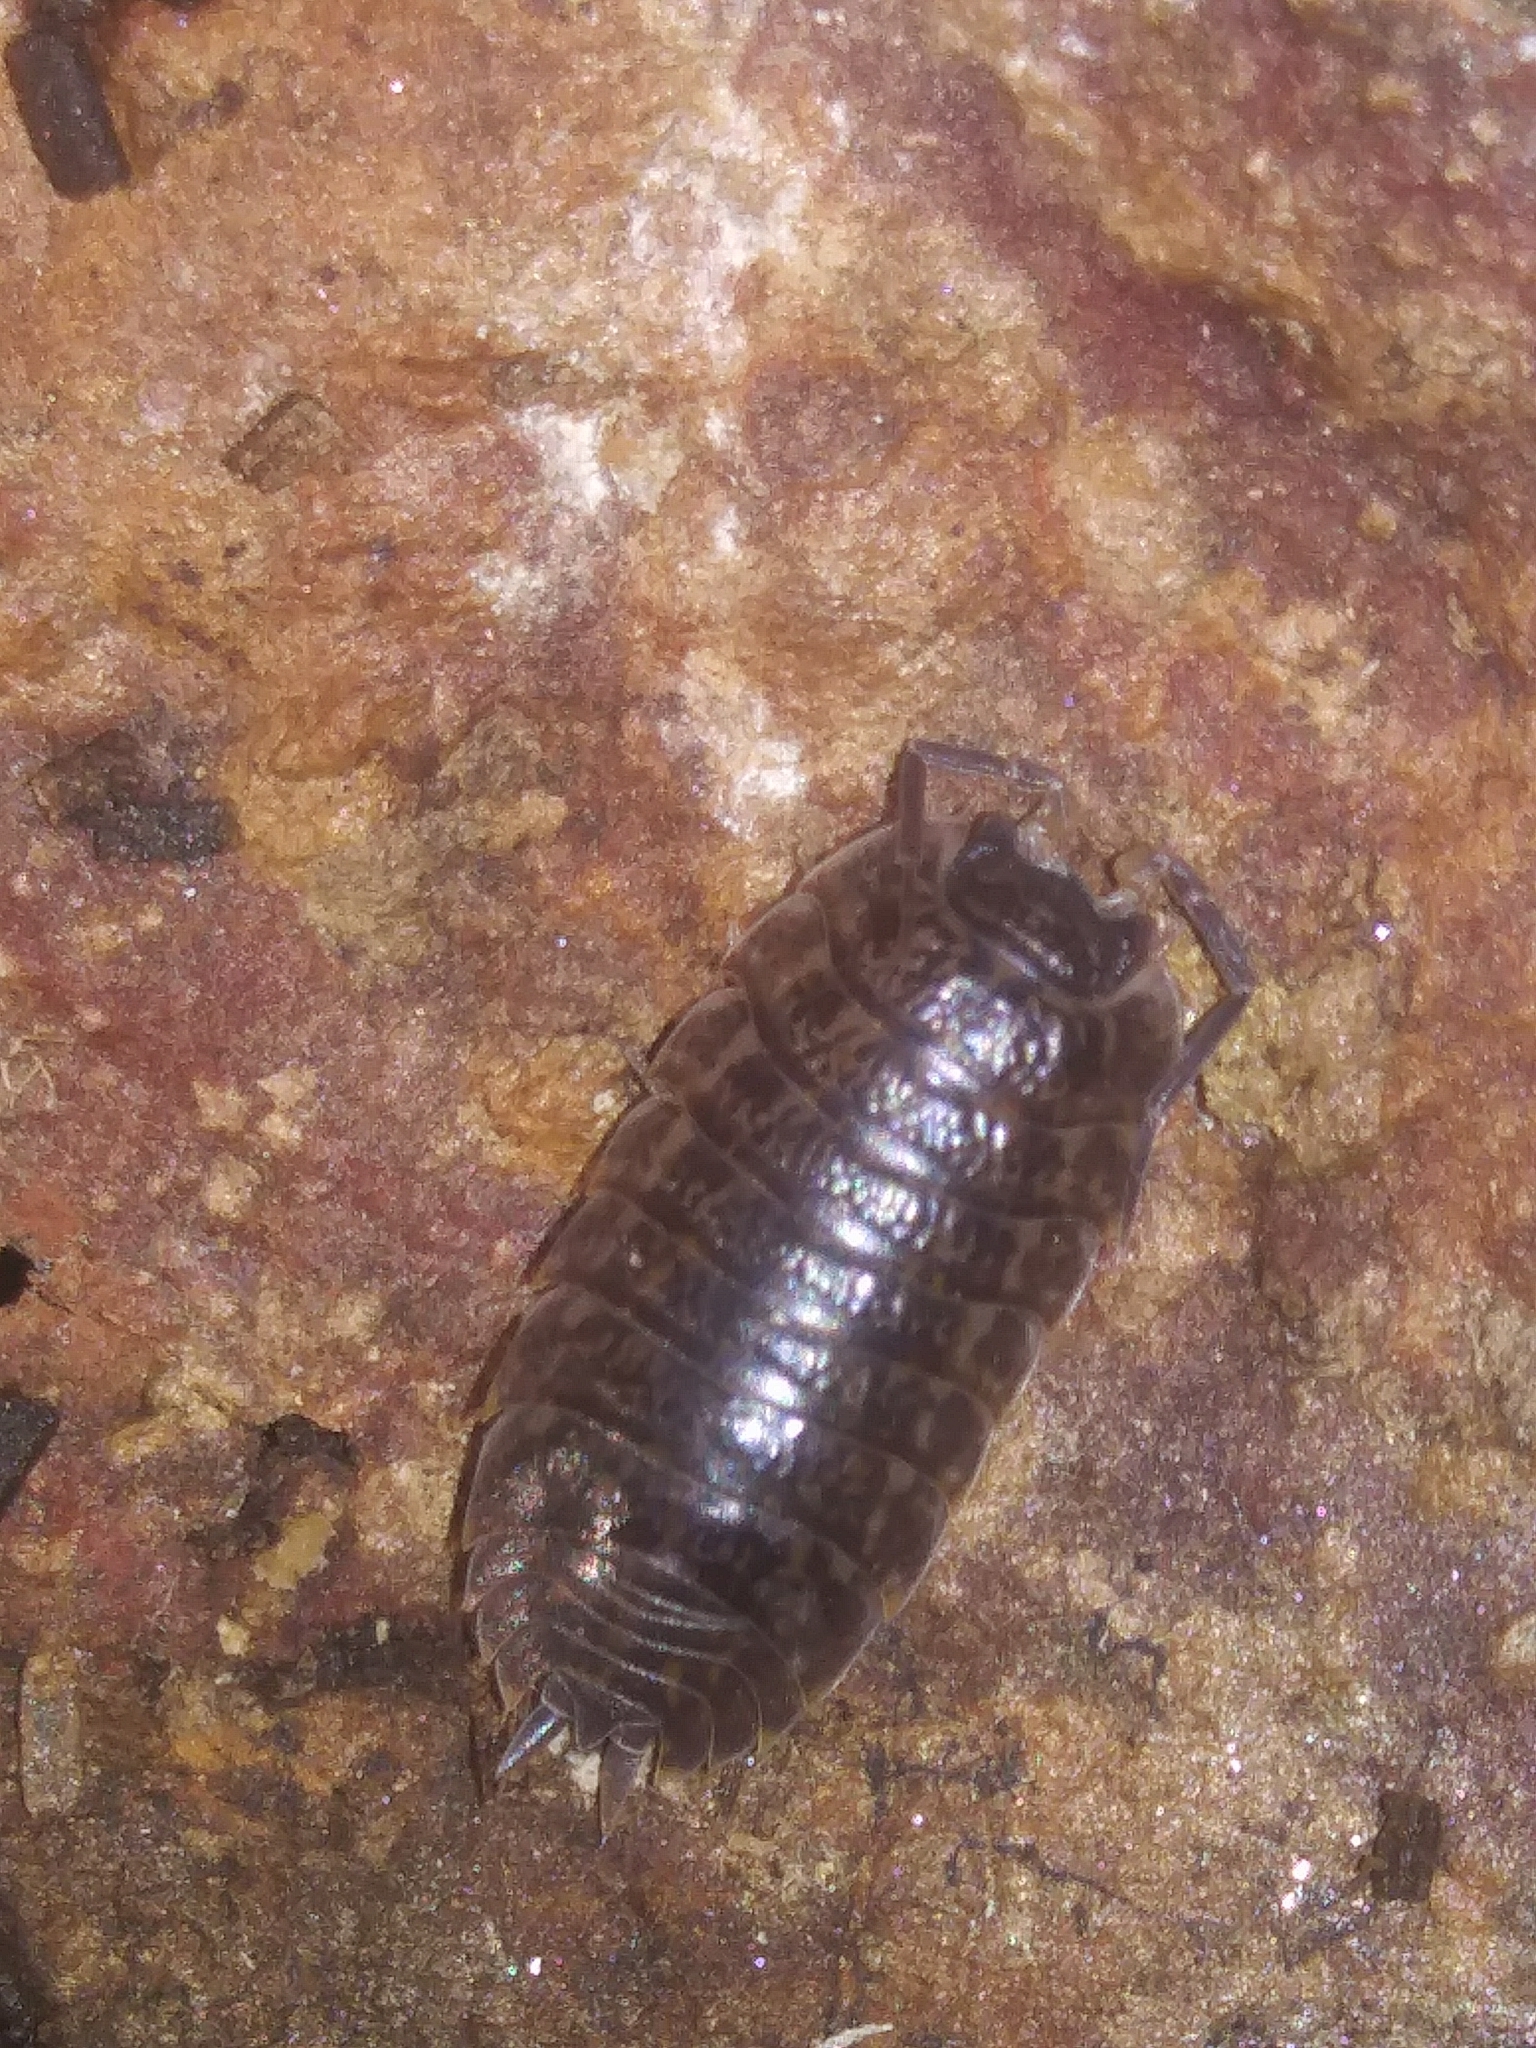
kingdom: Animalia
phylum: Arthropoda
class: Malacostraca
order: Isopoda
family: Trachelipodidae
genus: Trachelipus
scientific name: Trachelipus rathkii
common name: Isopod
